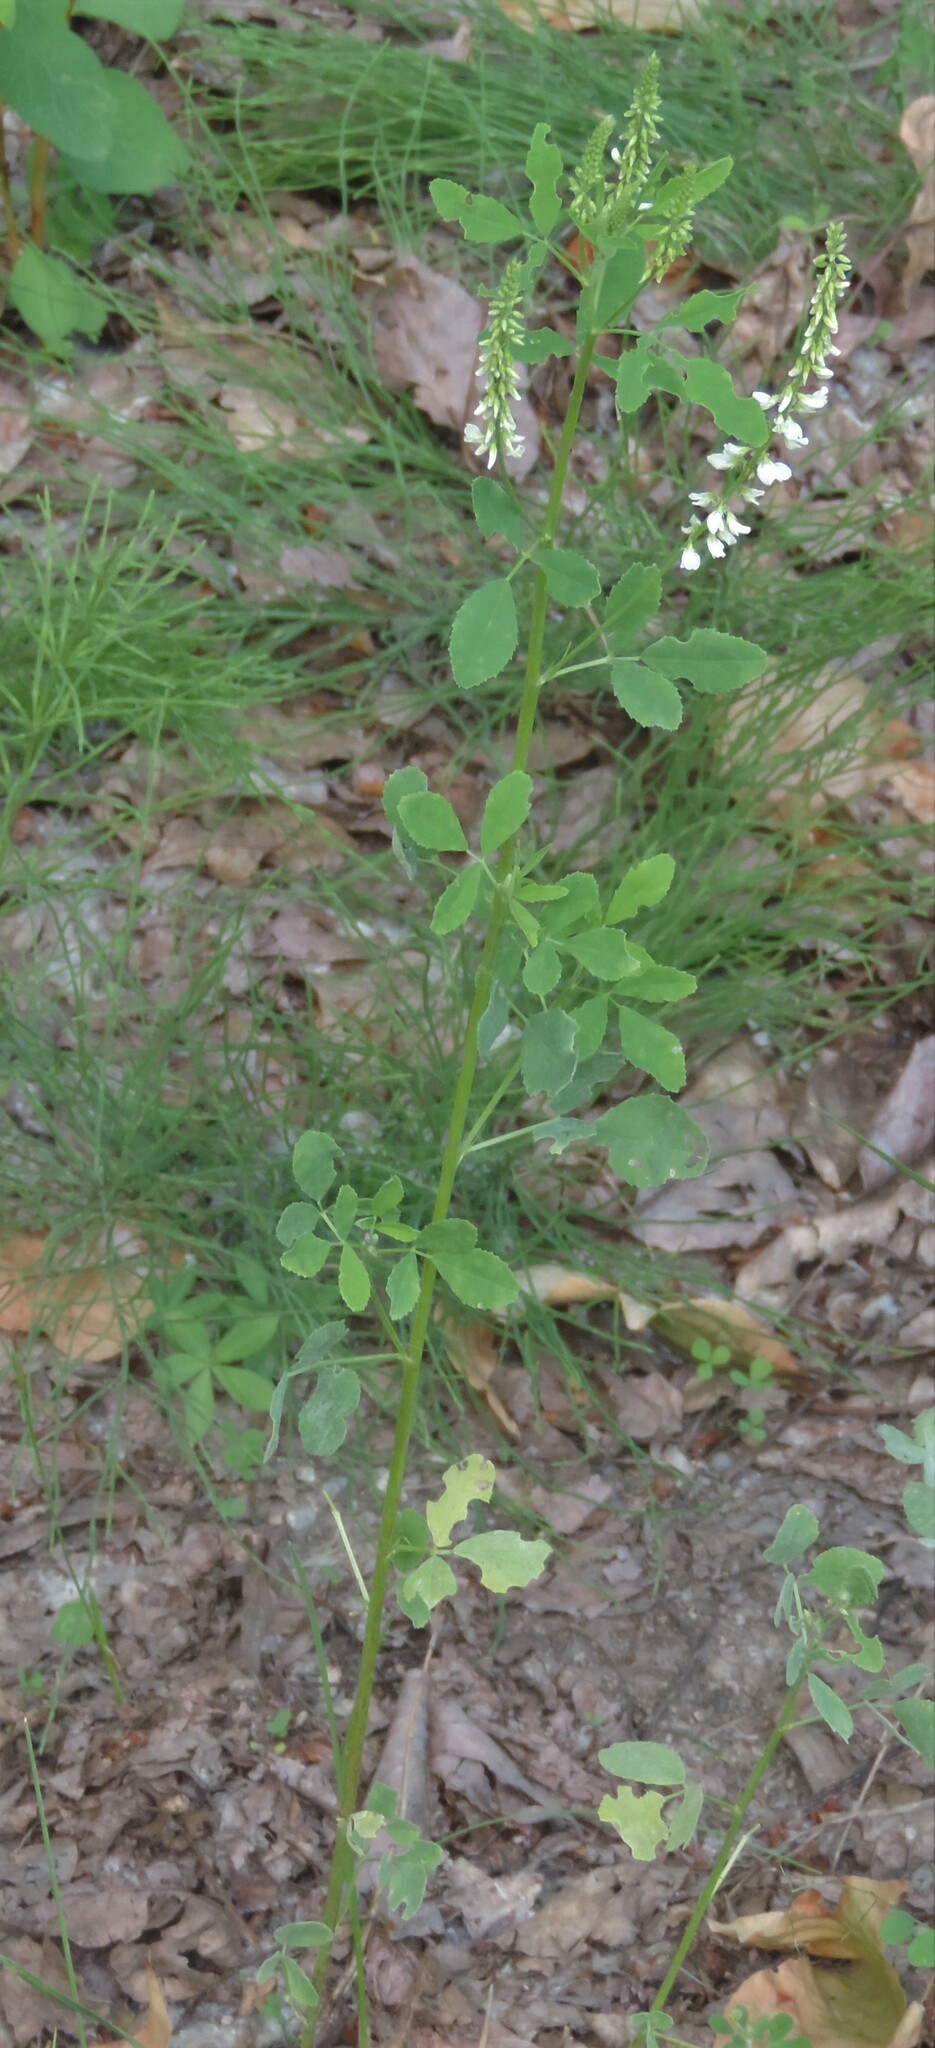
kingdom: Plantae
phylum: Tracheophyta
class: Magnoliopsida
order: Fabales
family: Fabaceae
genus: Melilotus
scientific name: Melilotus albus
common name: White melilot
